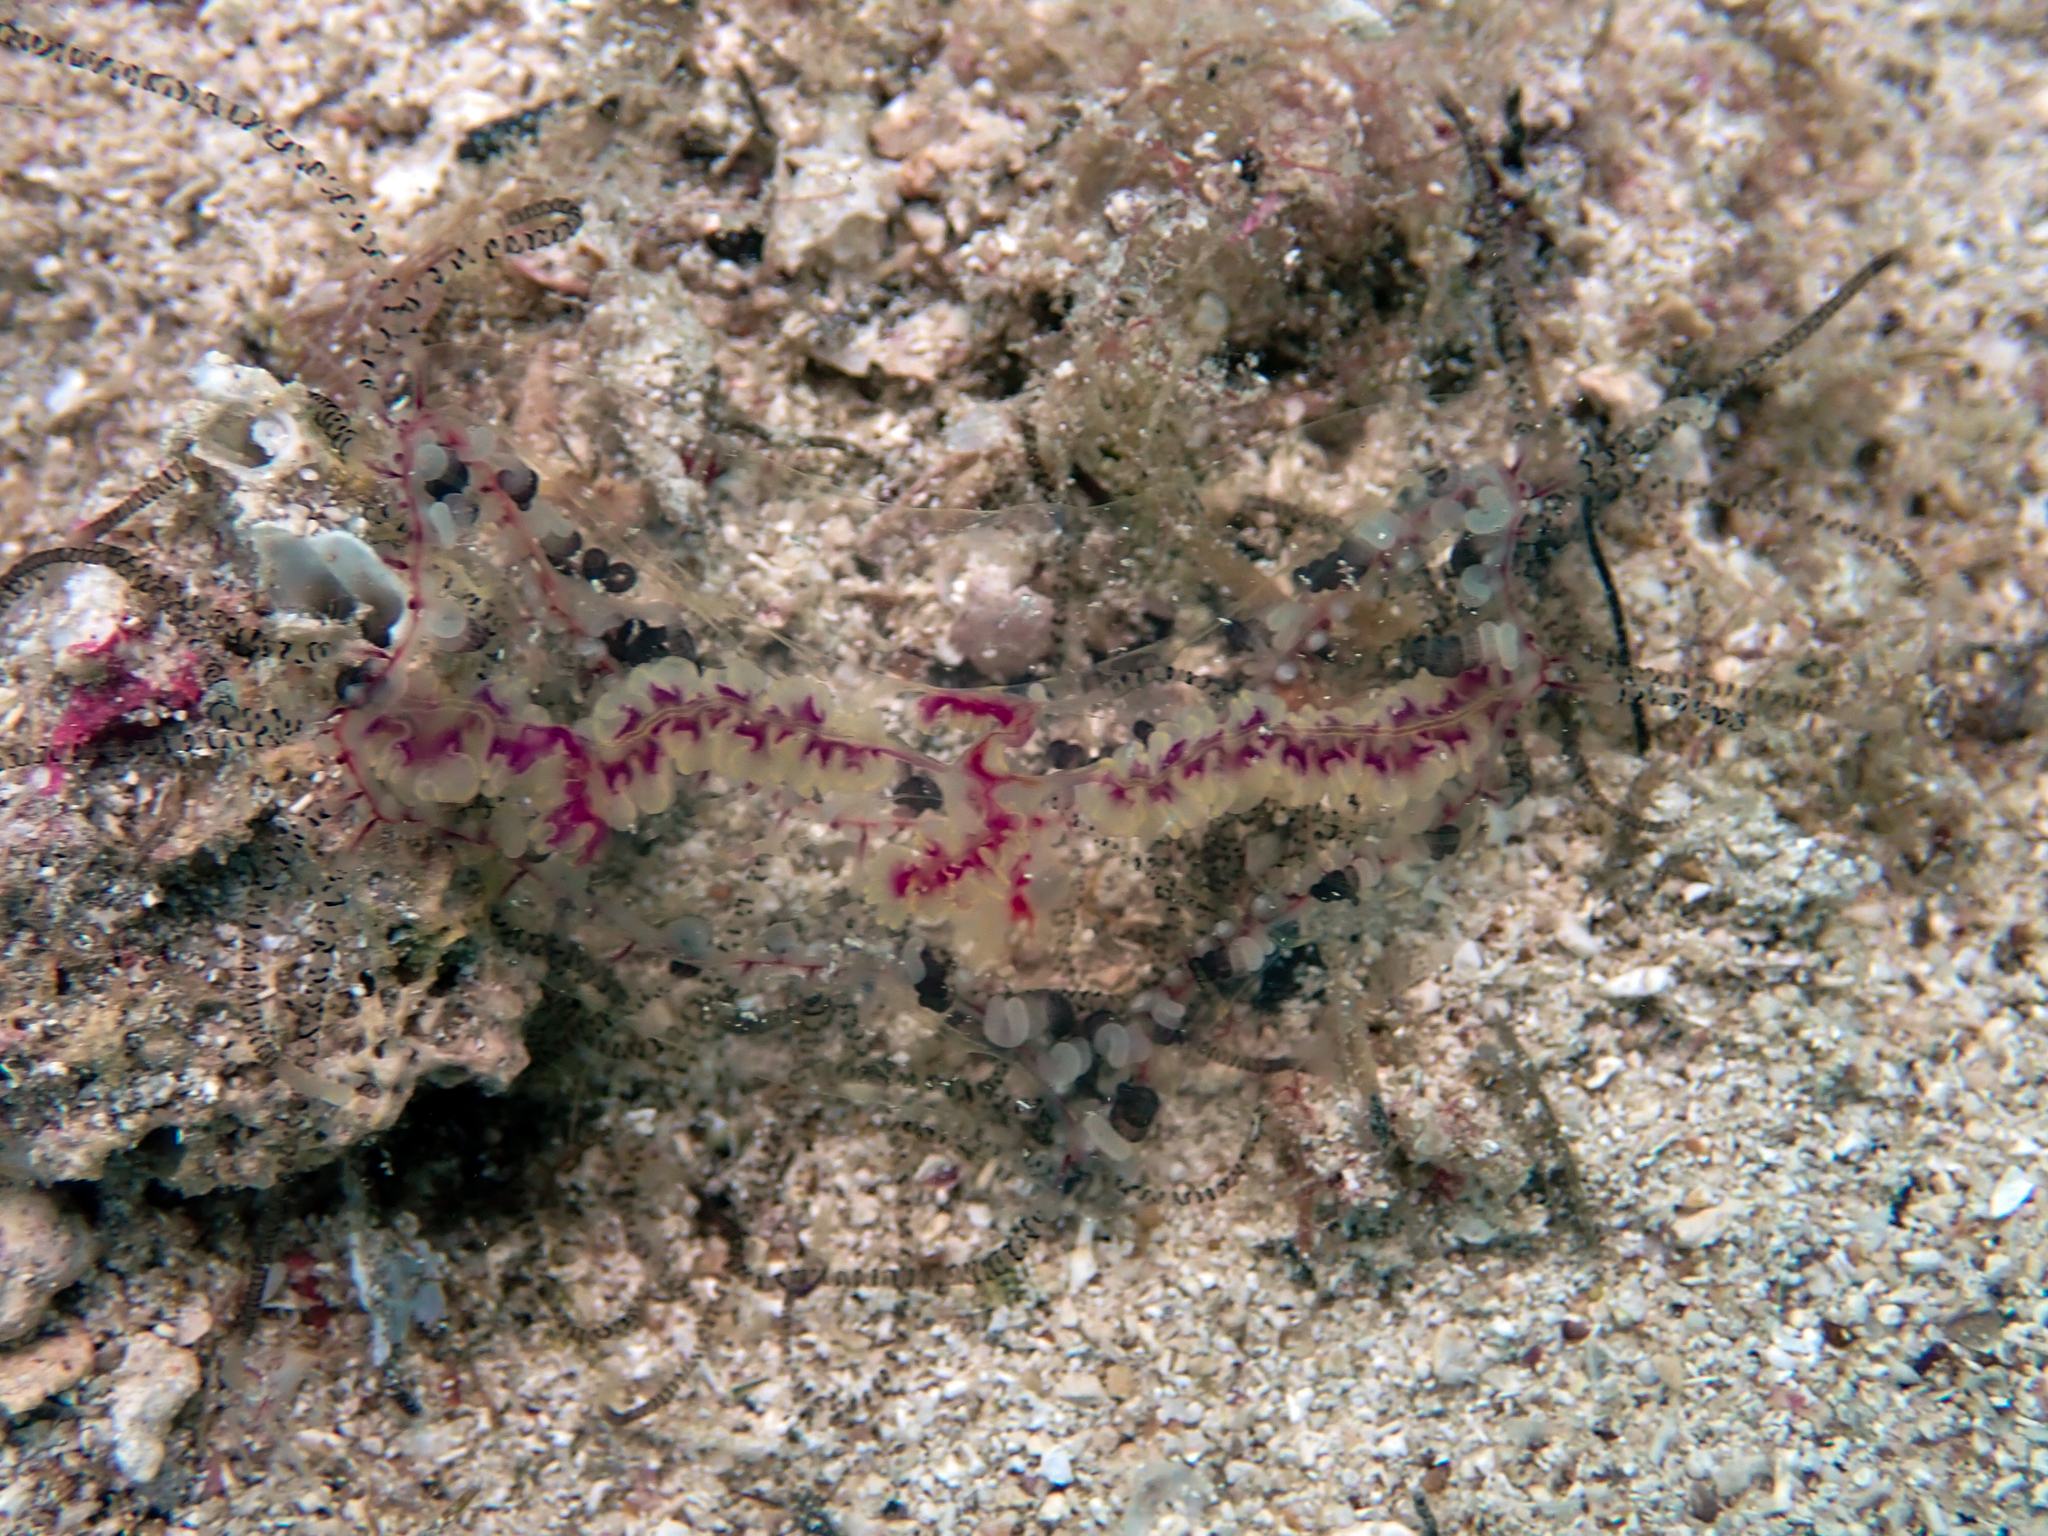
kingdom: Animalia
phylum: Cnidaria
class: Hydrozoa
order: Limnomedusae
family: Olindiidae
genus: Olindias
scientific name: Olindias muelleri
